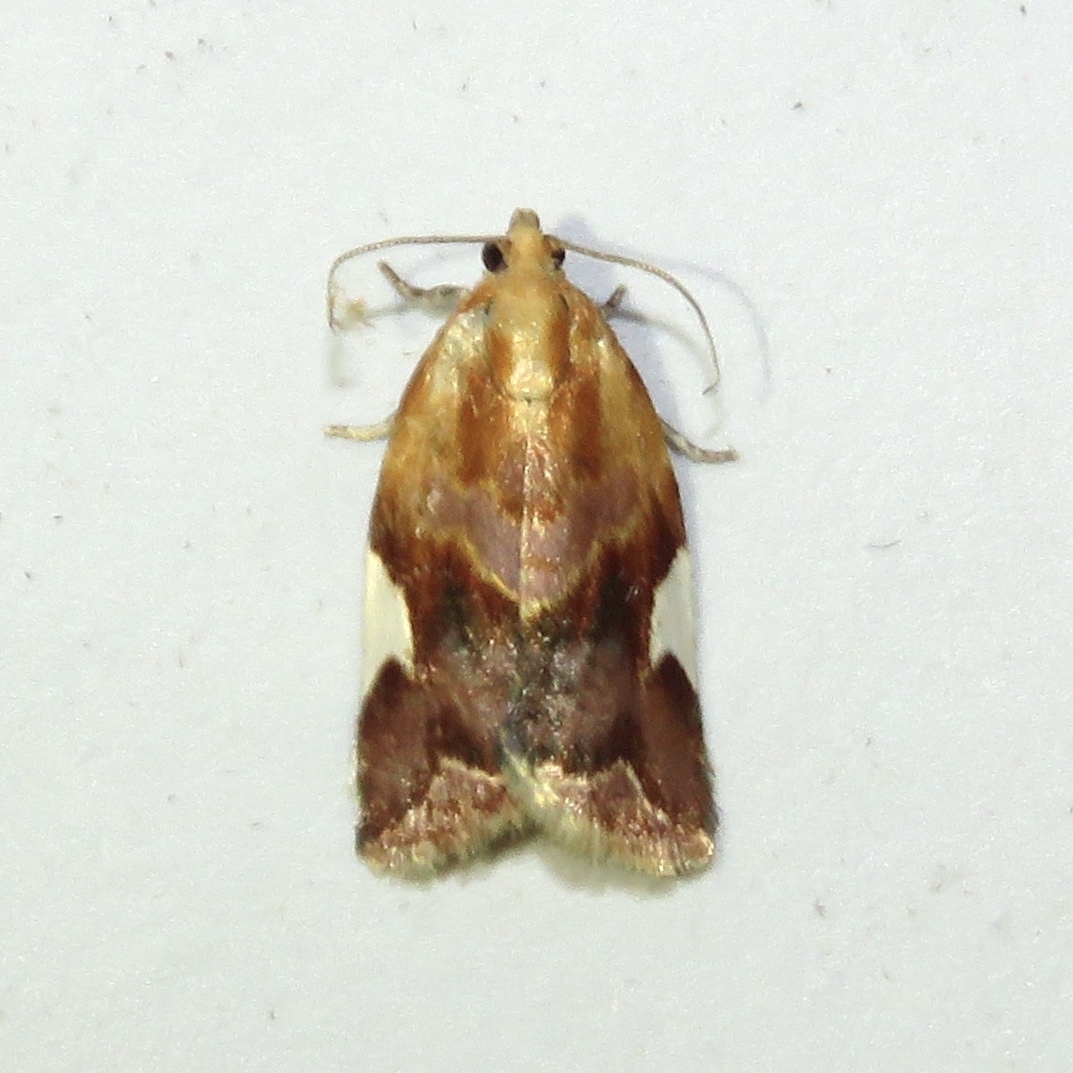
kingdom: Animalia
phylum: Arthropoda
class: Insecta
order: Lepidoptera
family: Tortricidae
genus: Clepsis
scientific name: Clepsis persicana
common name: White triangle tortrix
